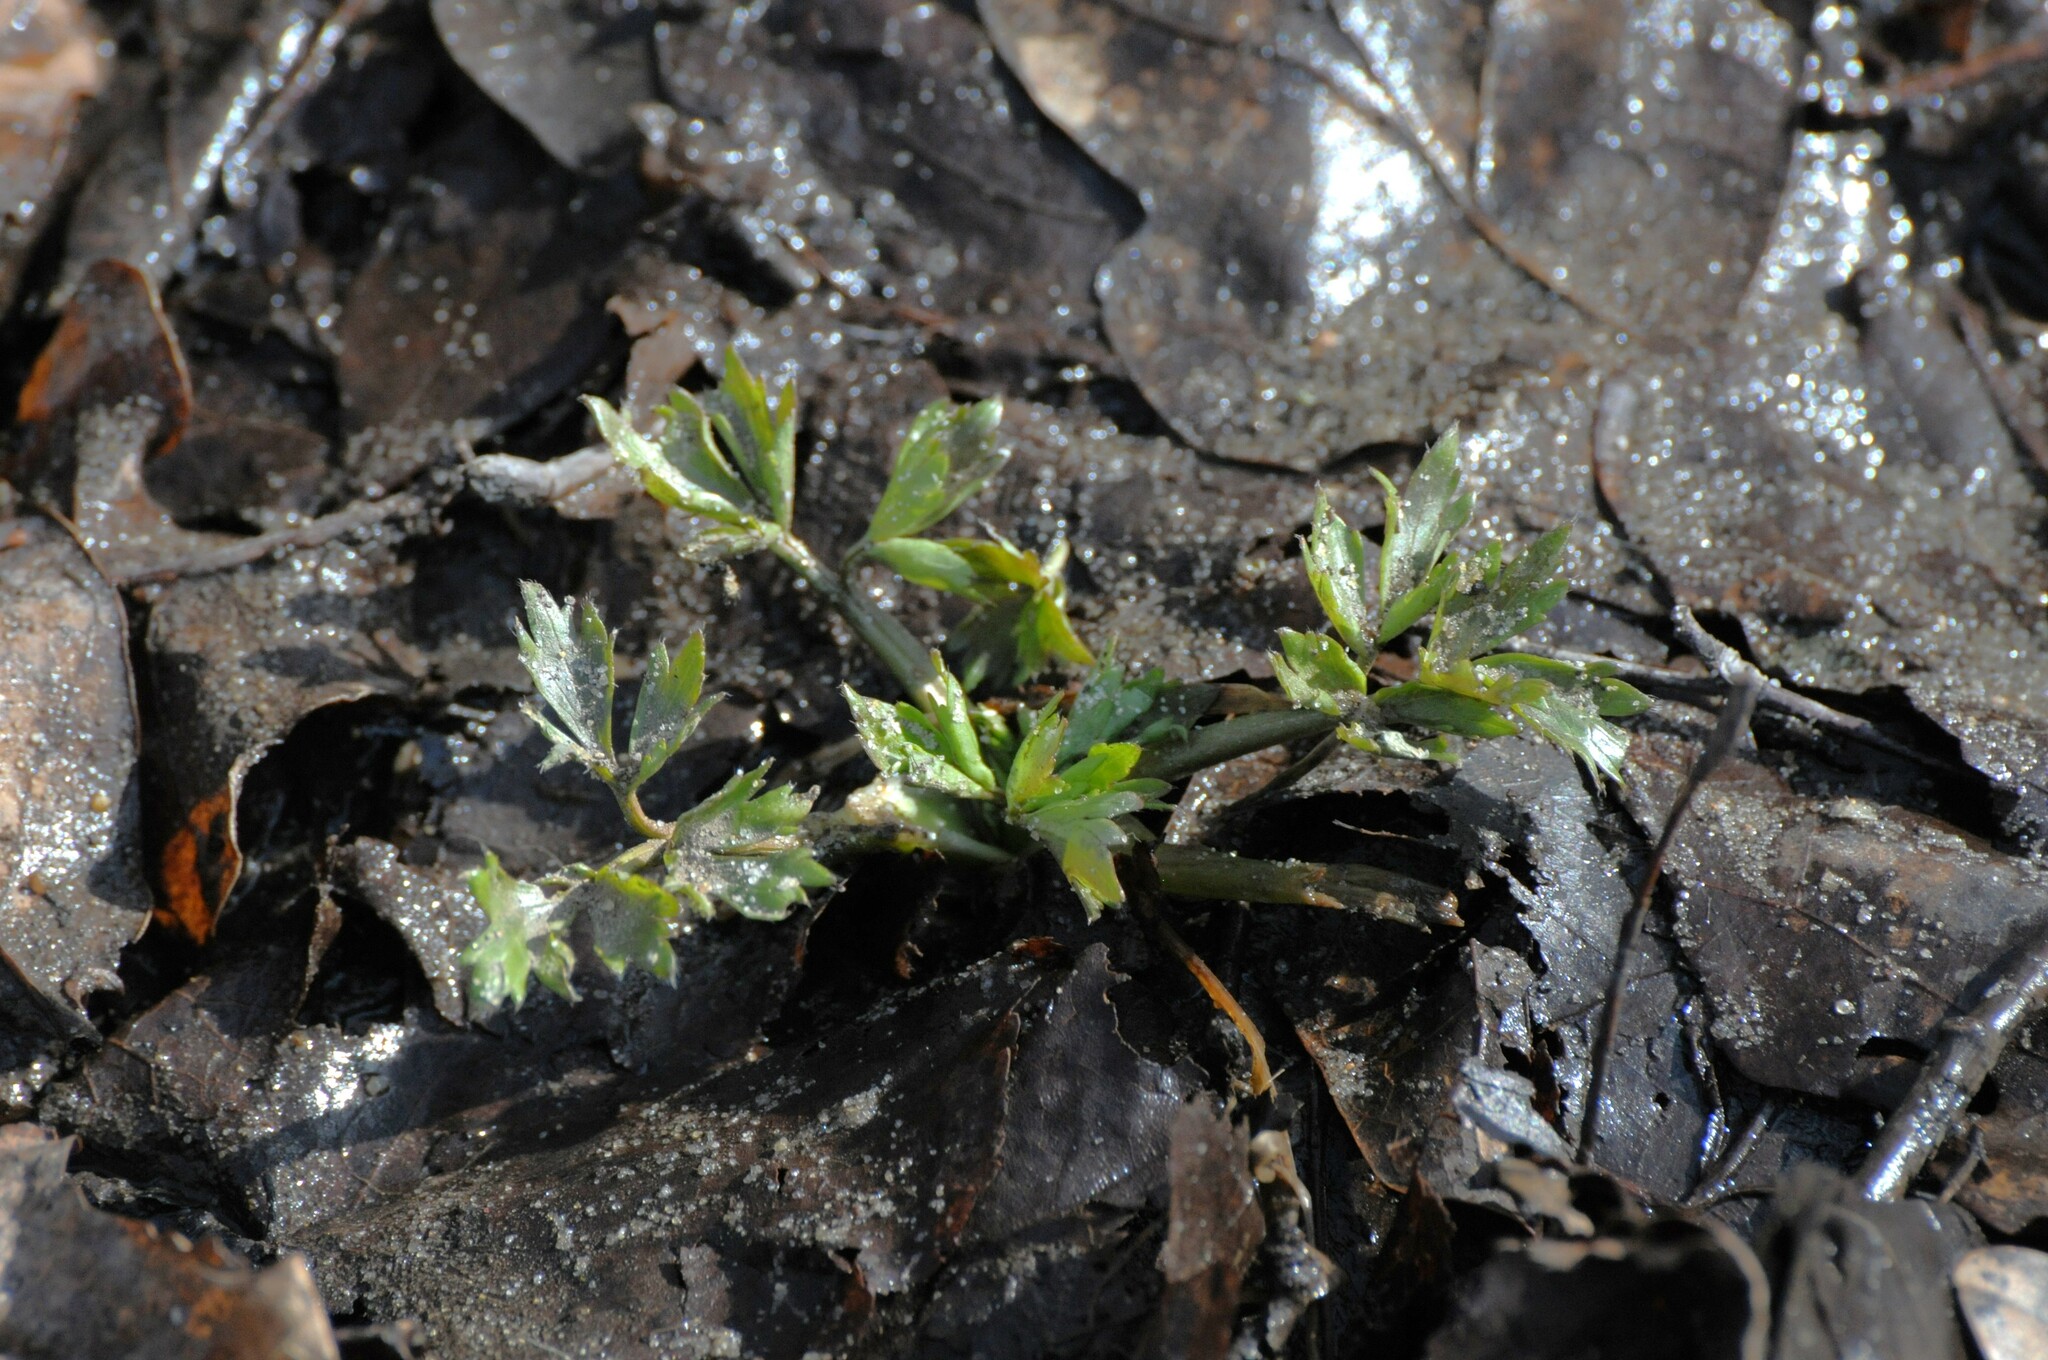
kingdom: Plantae
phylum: Tracheophyta
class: Magnoliopsida
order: Ranunculales
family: Ranunculaceae
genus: Ranunculus
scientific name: Ranunculus repens
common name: Creeping buttercup
